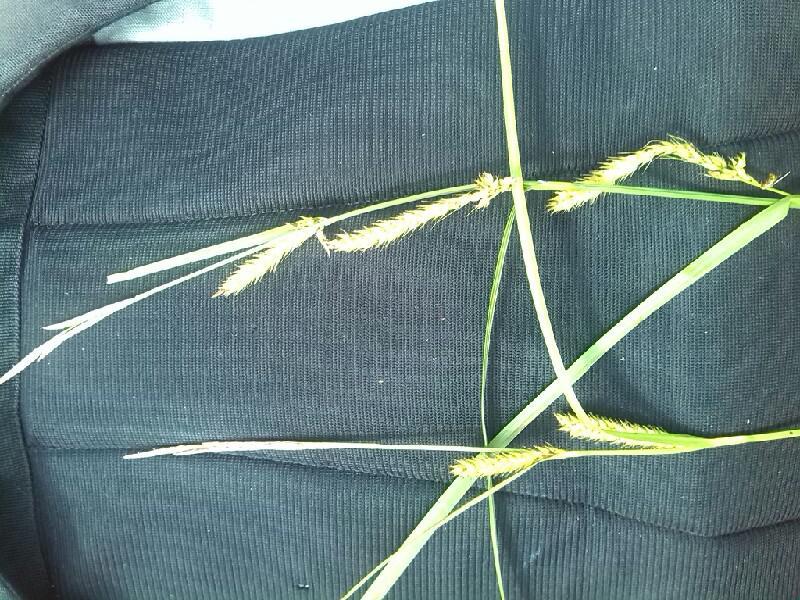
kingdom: Plantae
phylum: Tracheophyta
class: Liliopsida
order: Poales
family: Cyperaceae
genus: Carex
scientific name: Carex walasii
